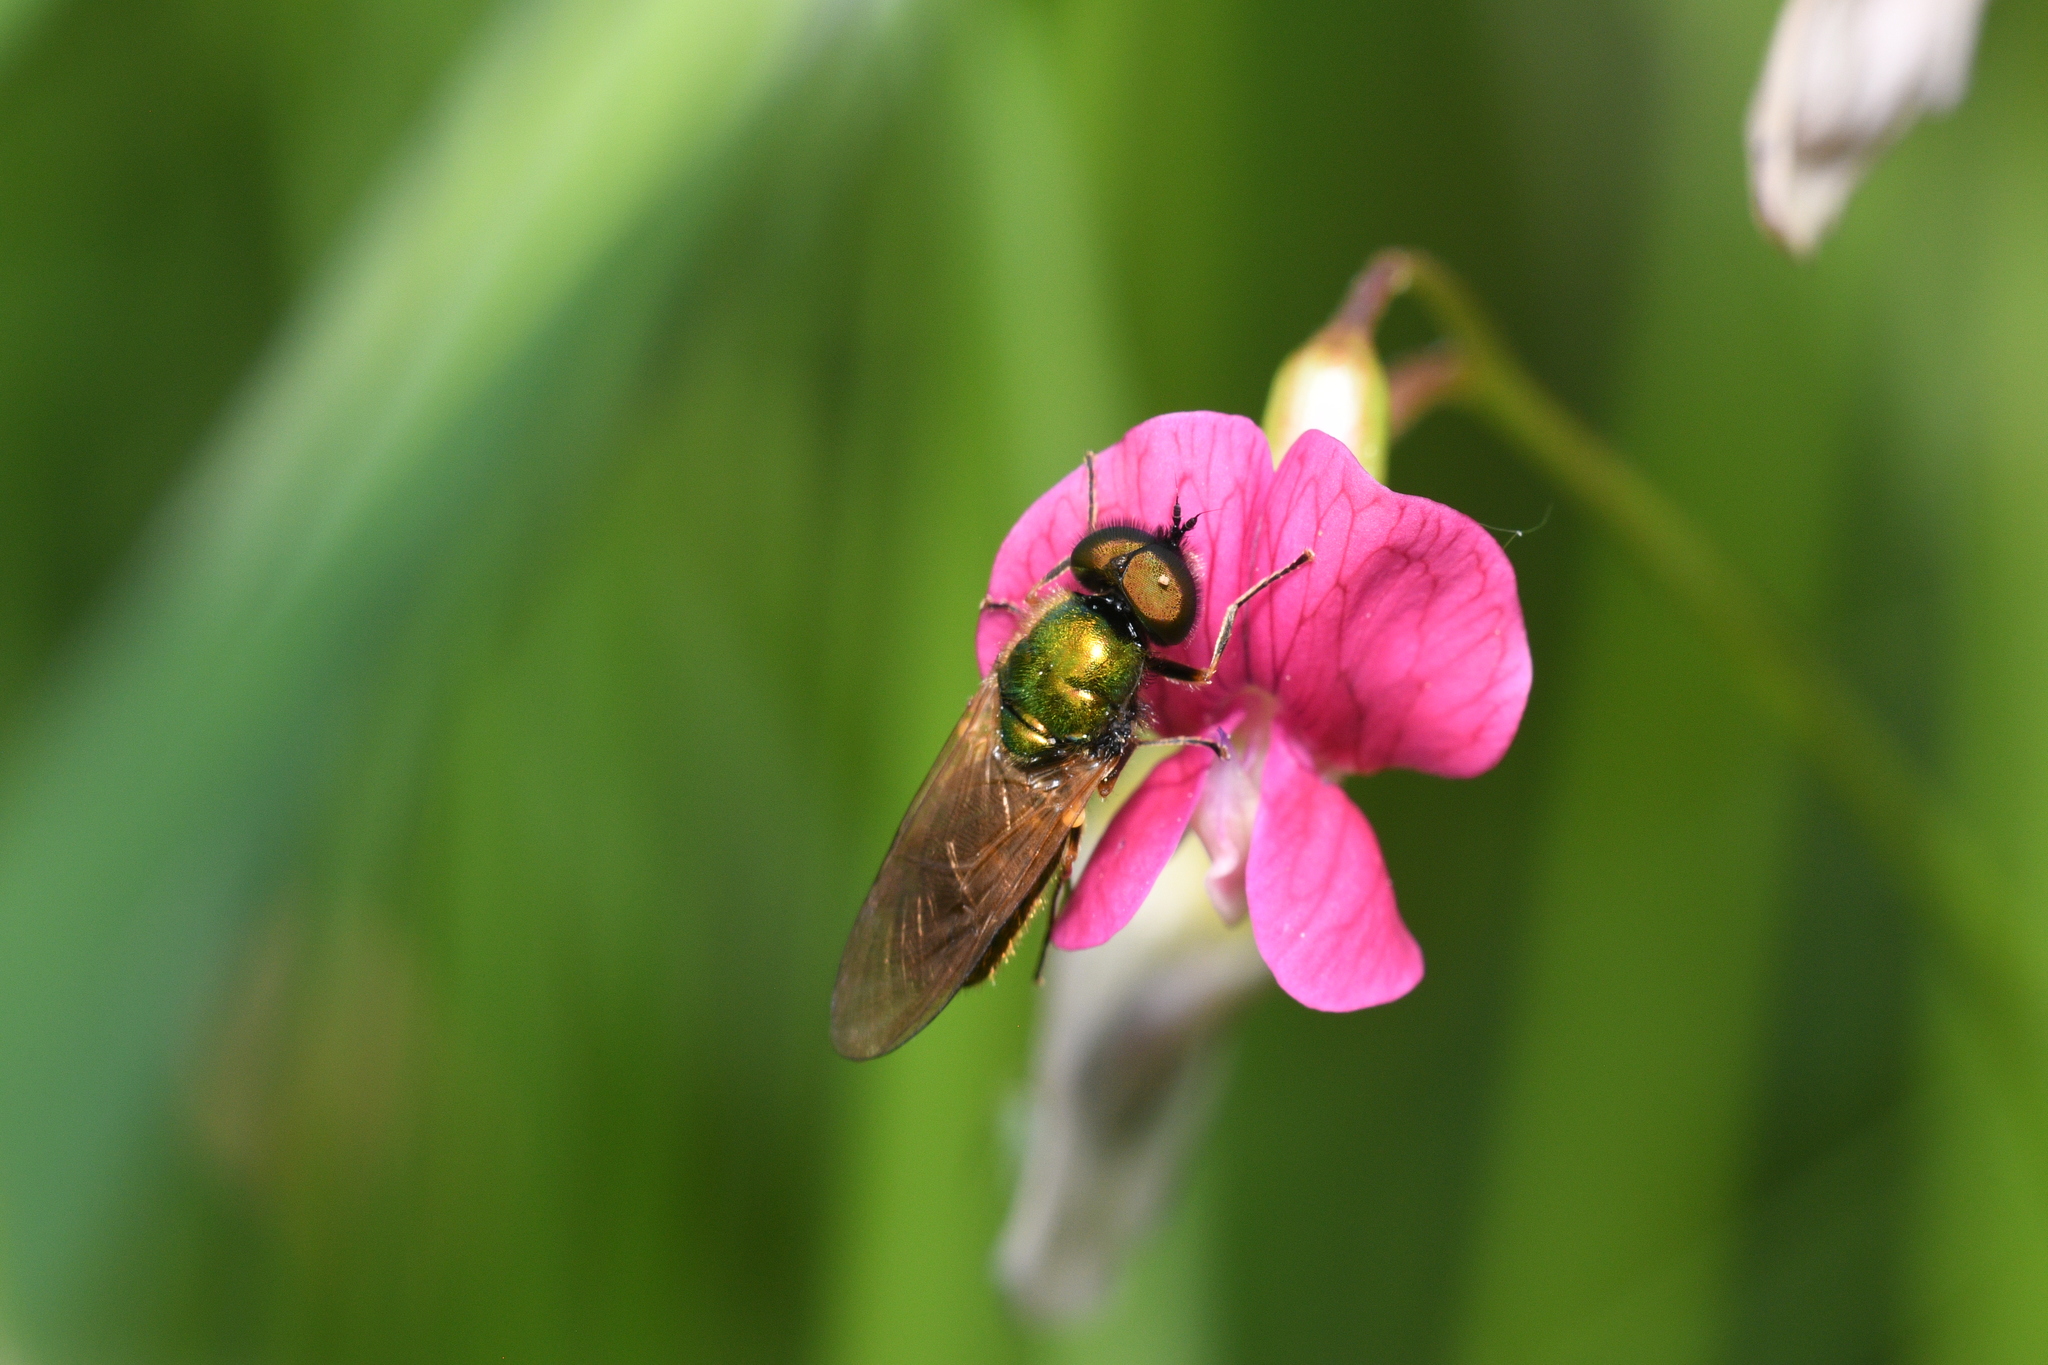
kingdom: Animalia
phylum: Arthropoda
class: Insecta
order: Diptera
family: Stratiomyidae
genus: Chloromyia
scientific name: Chloromyia formosa
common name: Soldier fly
